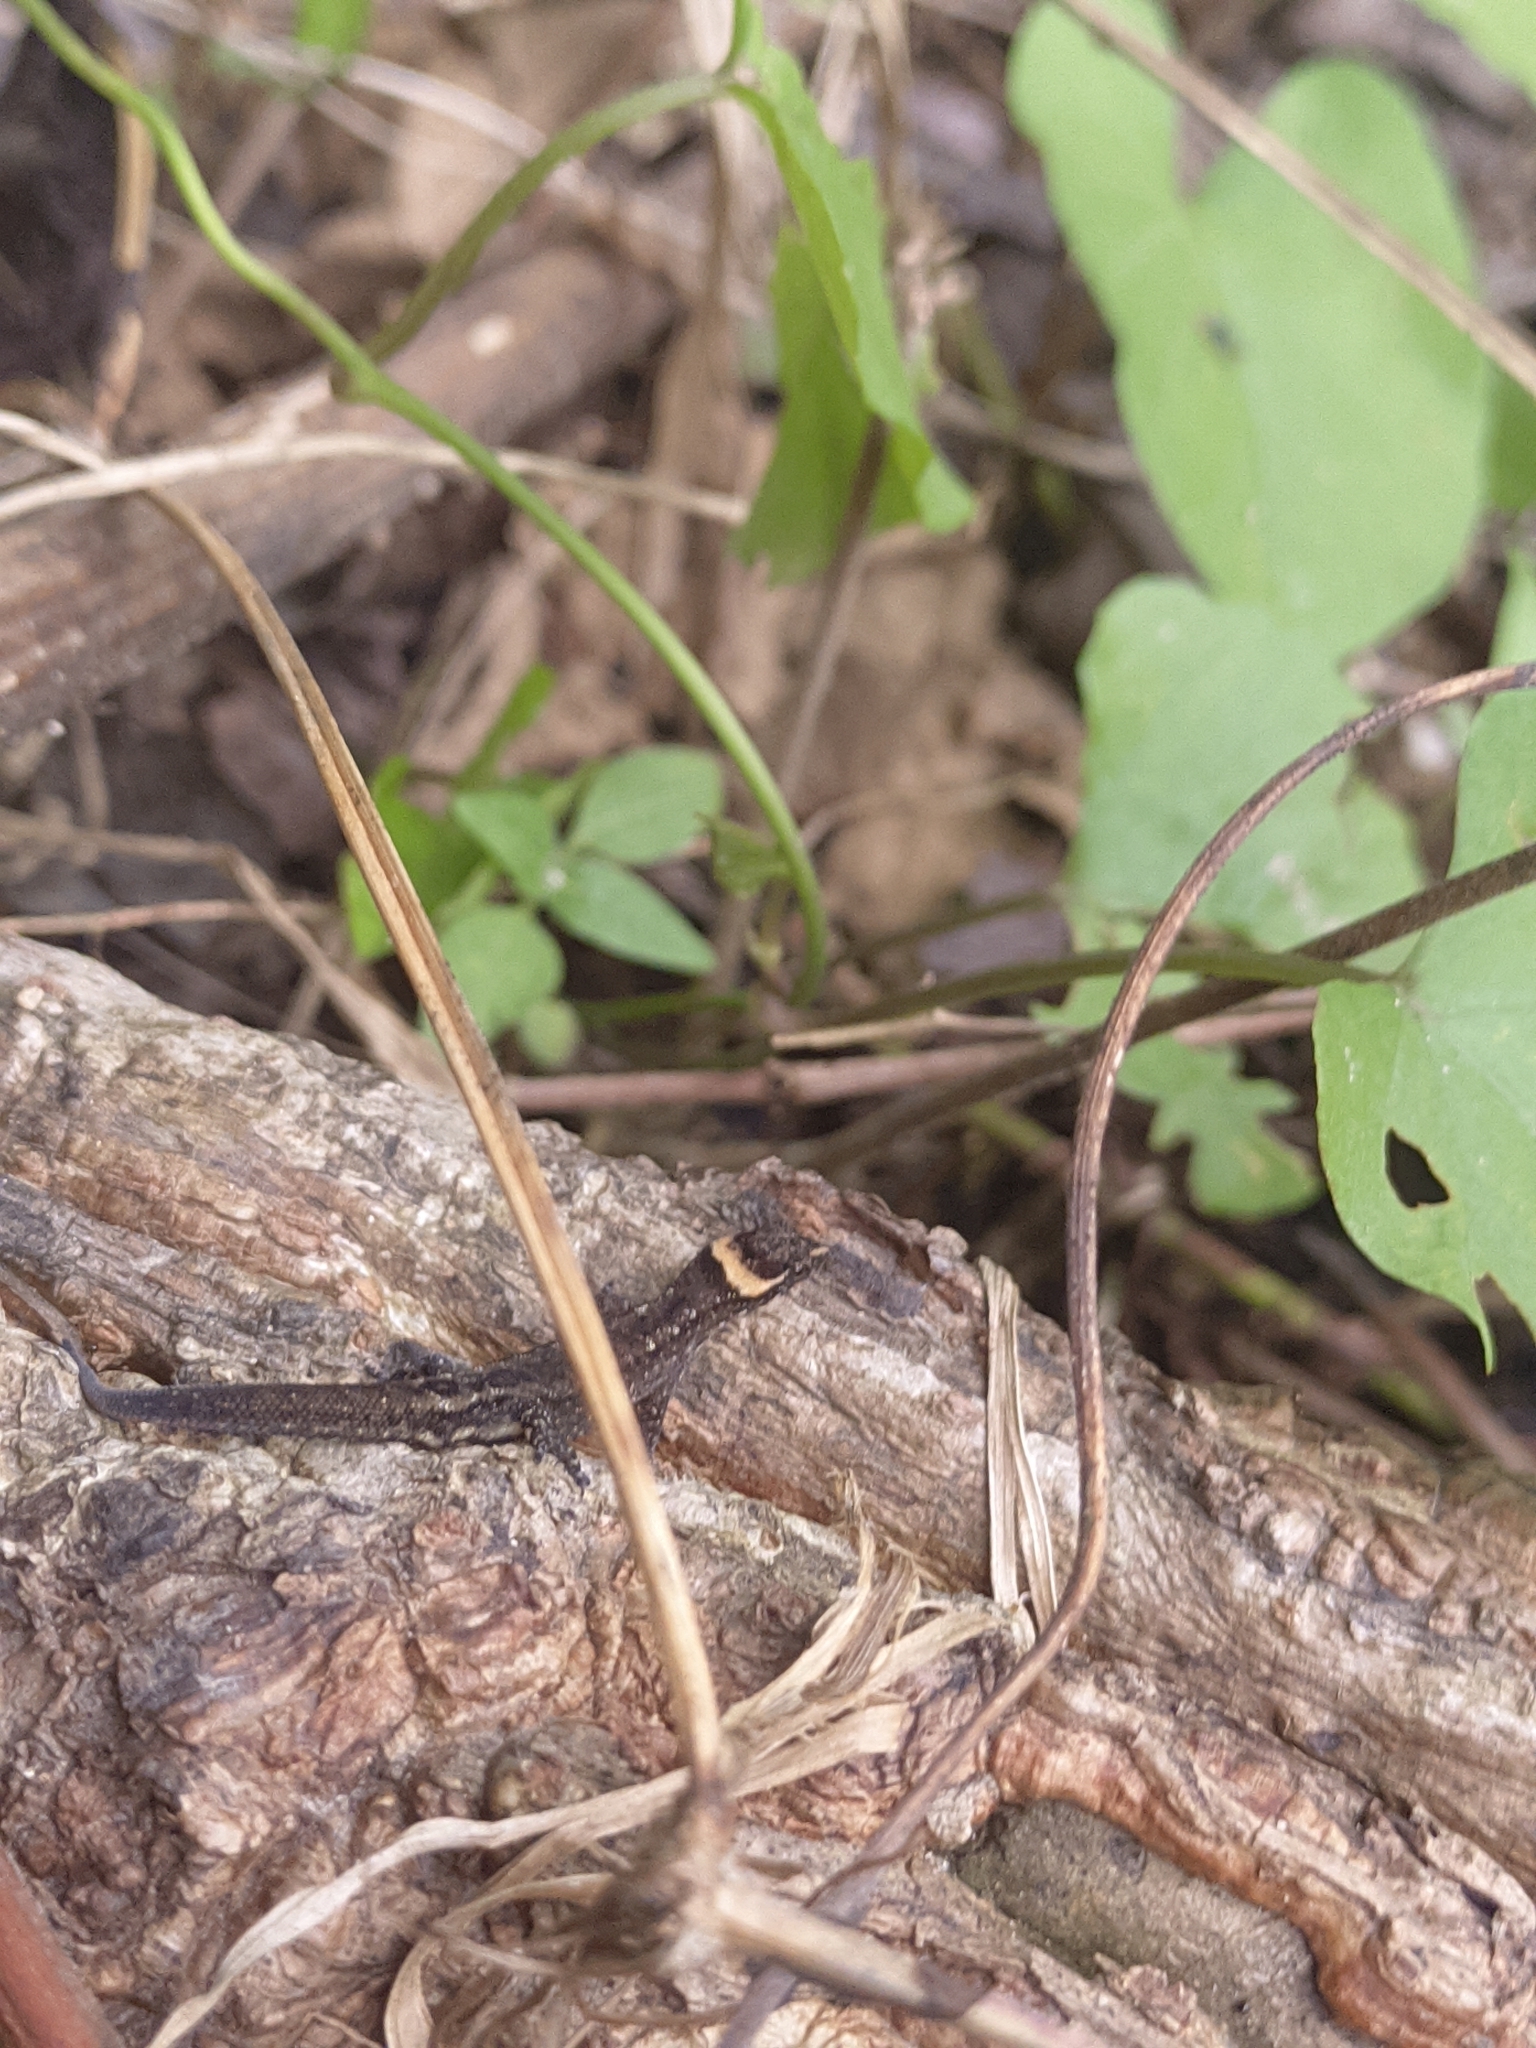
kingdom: Animalia
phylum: Chordata
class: Squamata
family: Sphaerodactylidae
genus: Lepidoblepharis
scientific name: Lepidoblepharis sanctaemartae
